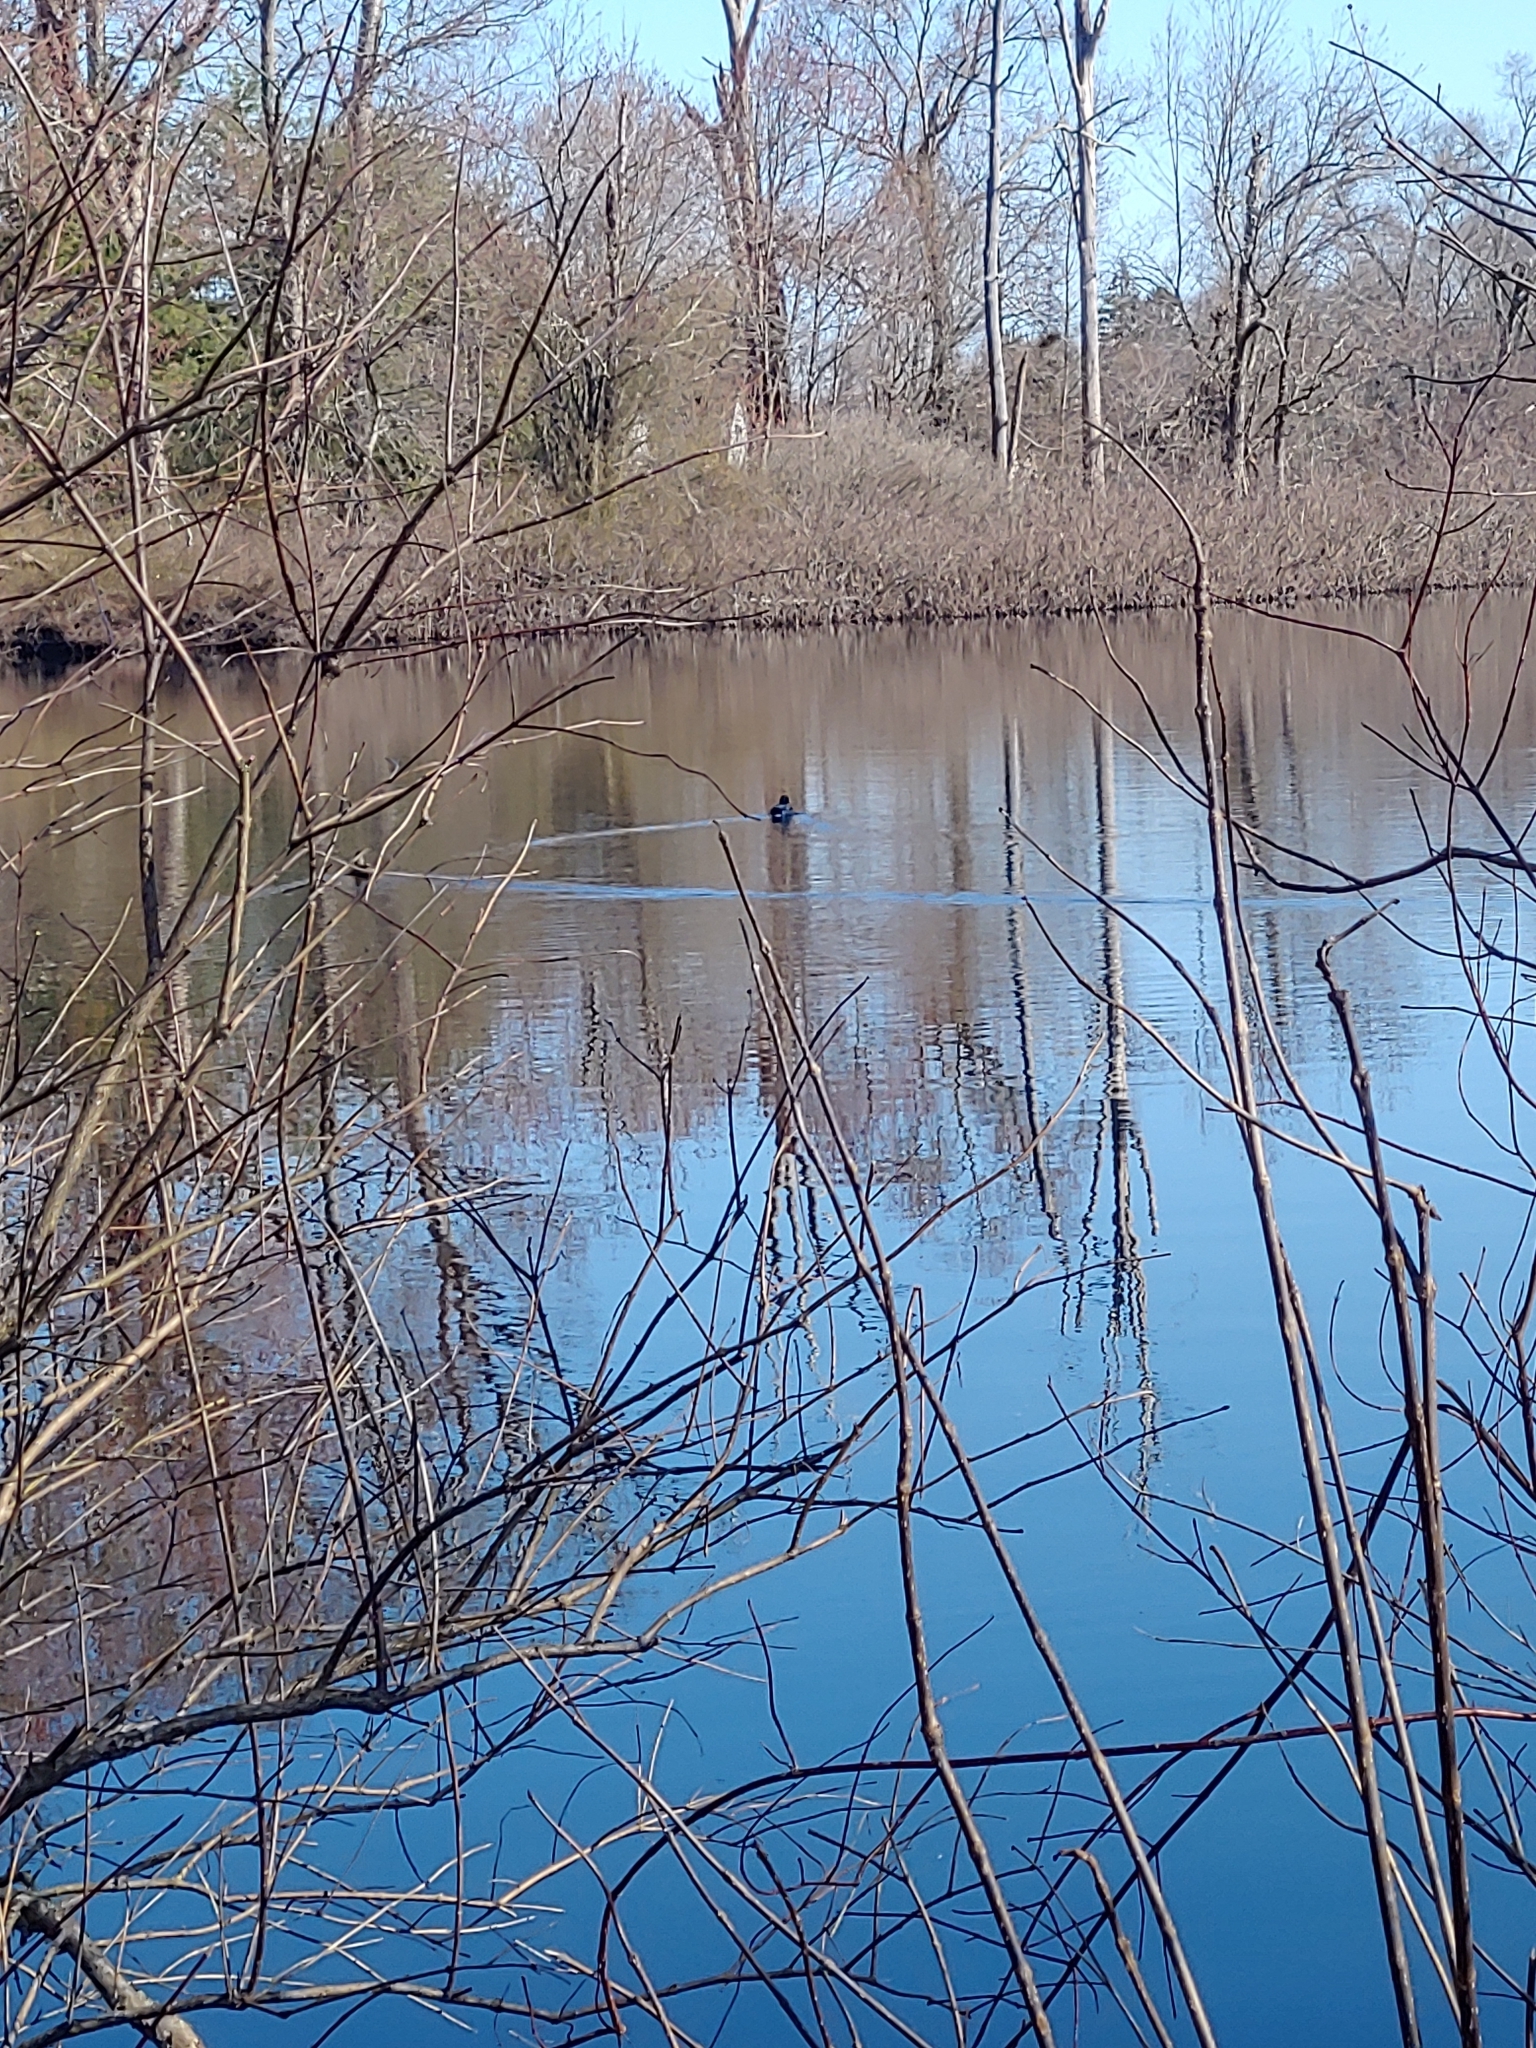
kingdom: Animalia
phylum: Chordata
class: Aves
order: Anseriformes
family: Anatidae
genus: Anas
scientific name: Anas platyrhynchos
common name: Mallard
